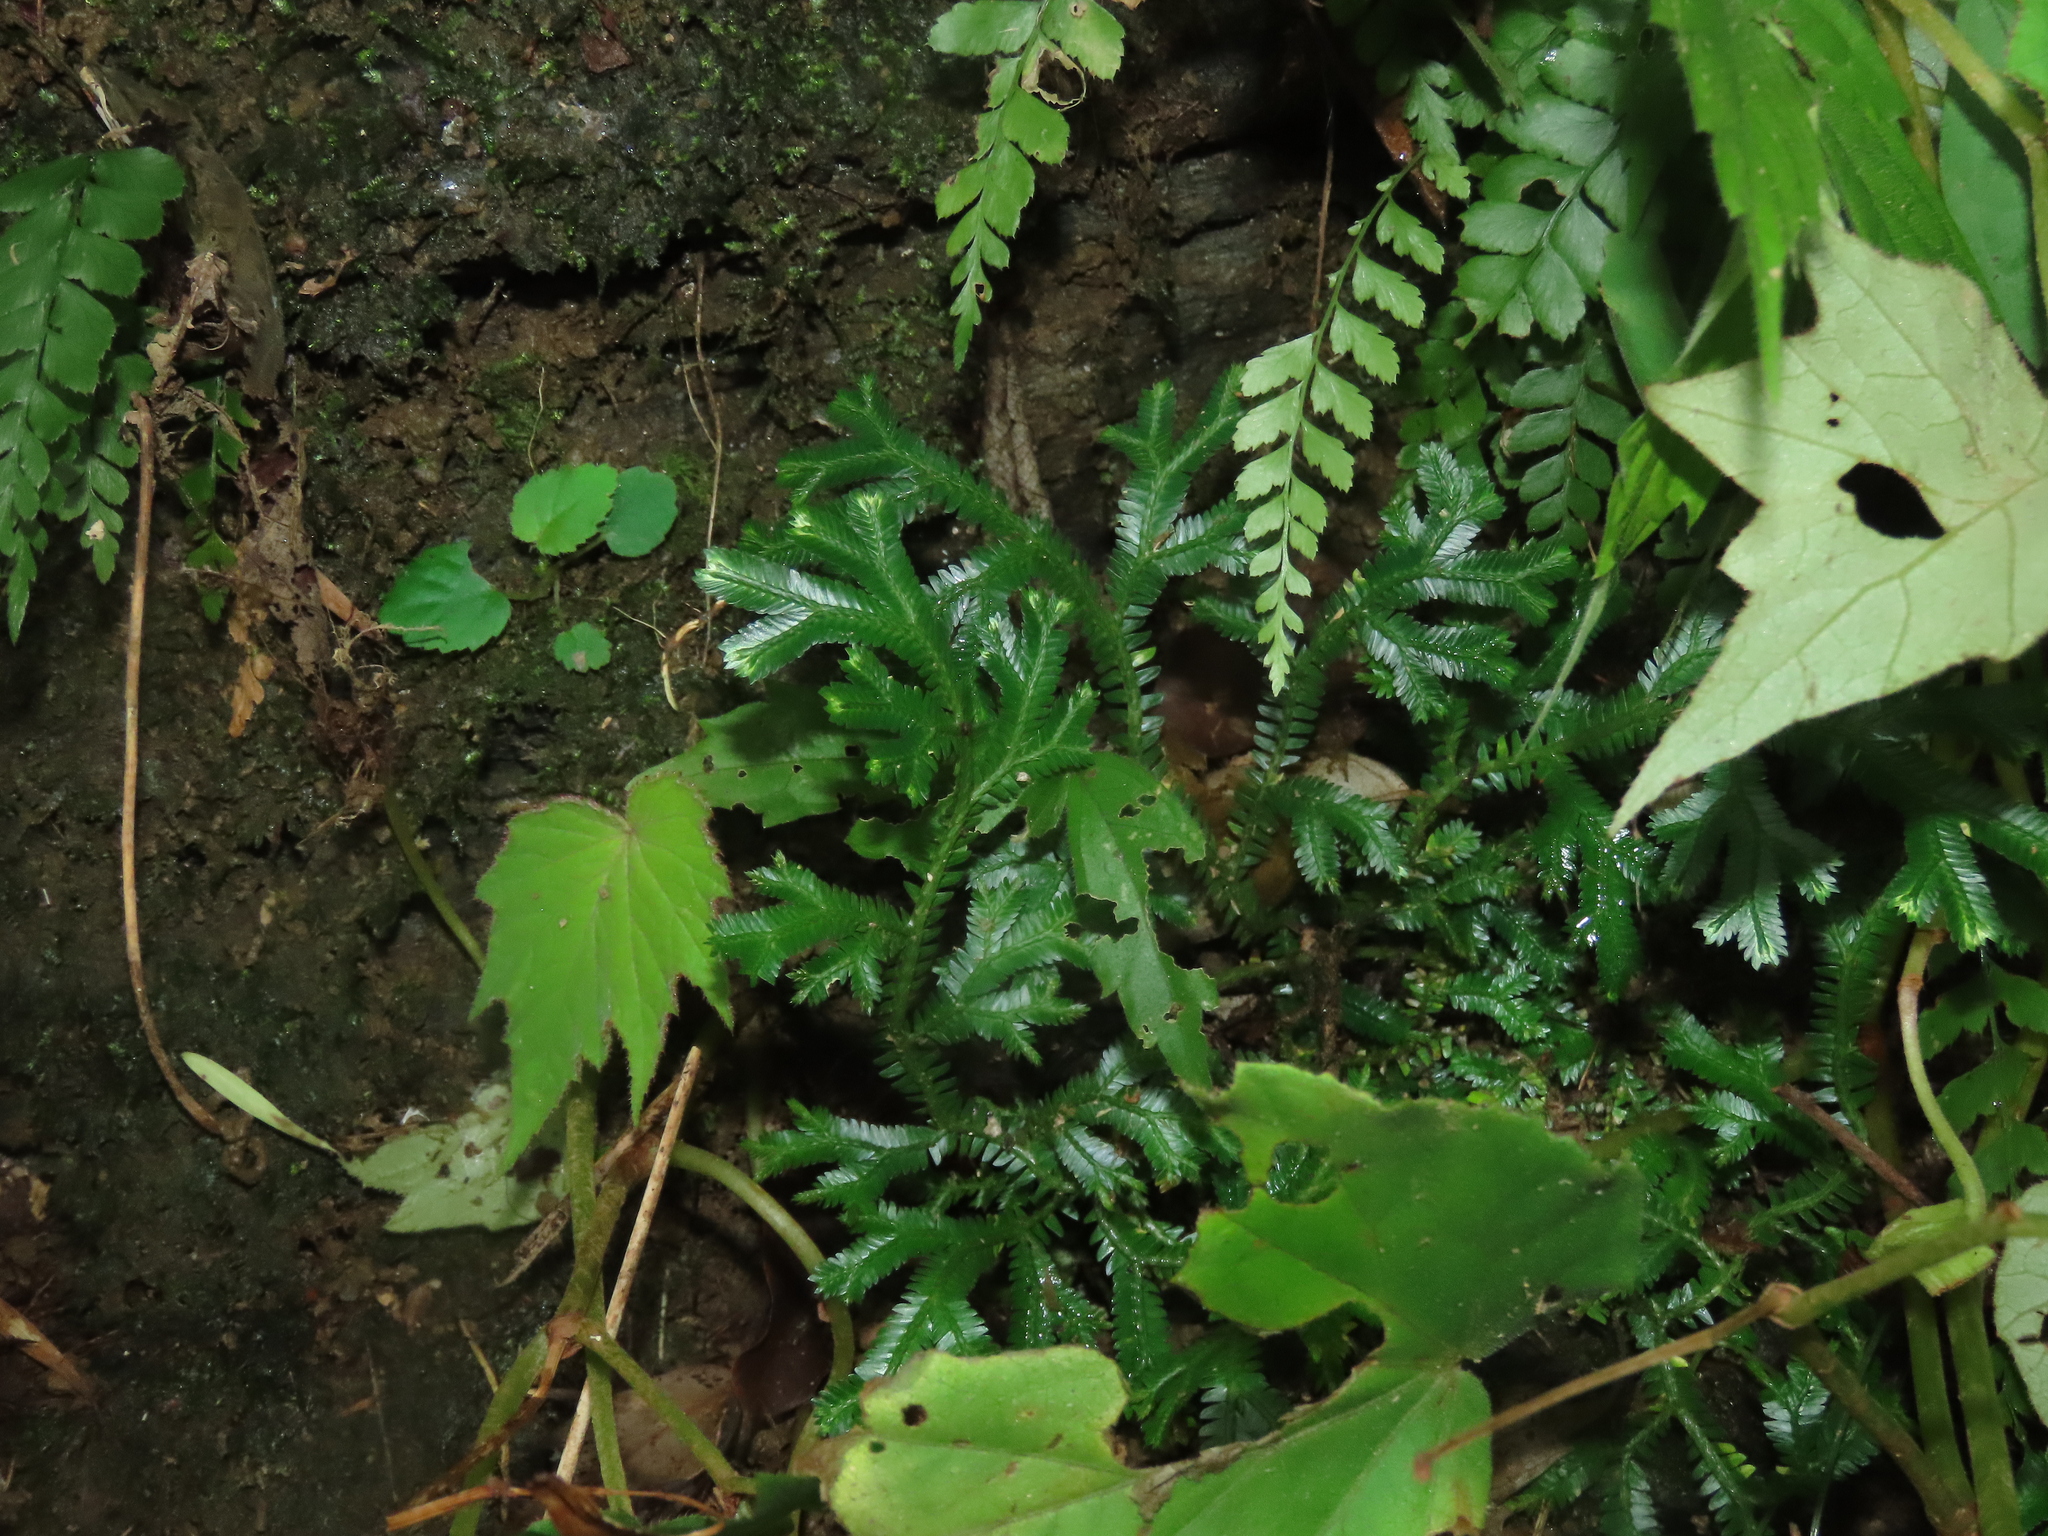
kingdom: Plantae
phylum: Tracheophyta
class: Lycopodiopsida
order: Selaginellales
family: Selaginellaceae
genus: Selaginella
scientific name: Selaginella doederleinii
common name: Greater selaginella
